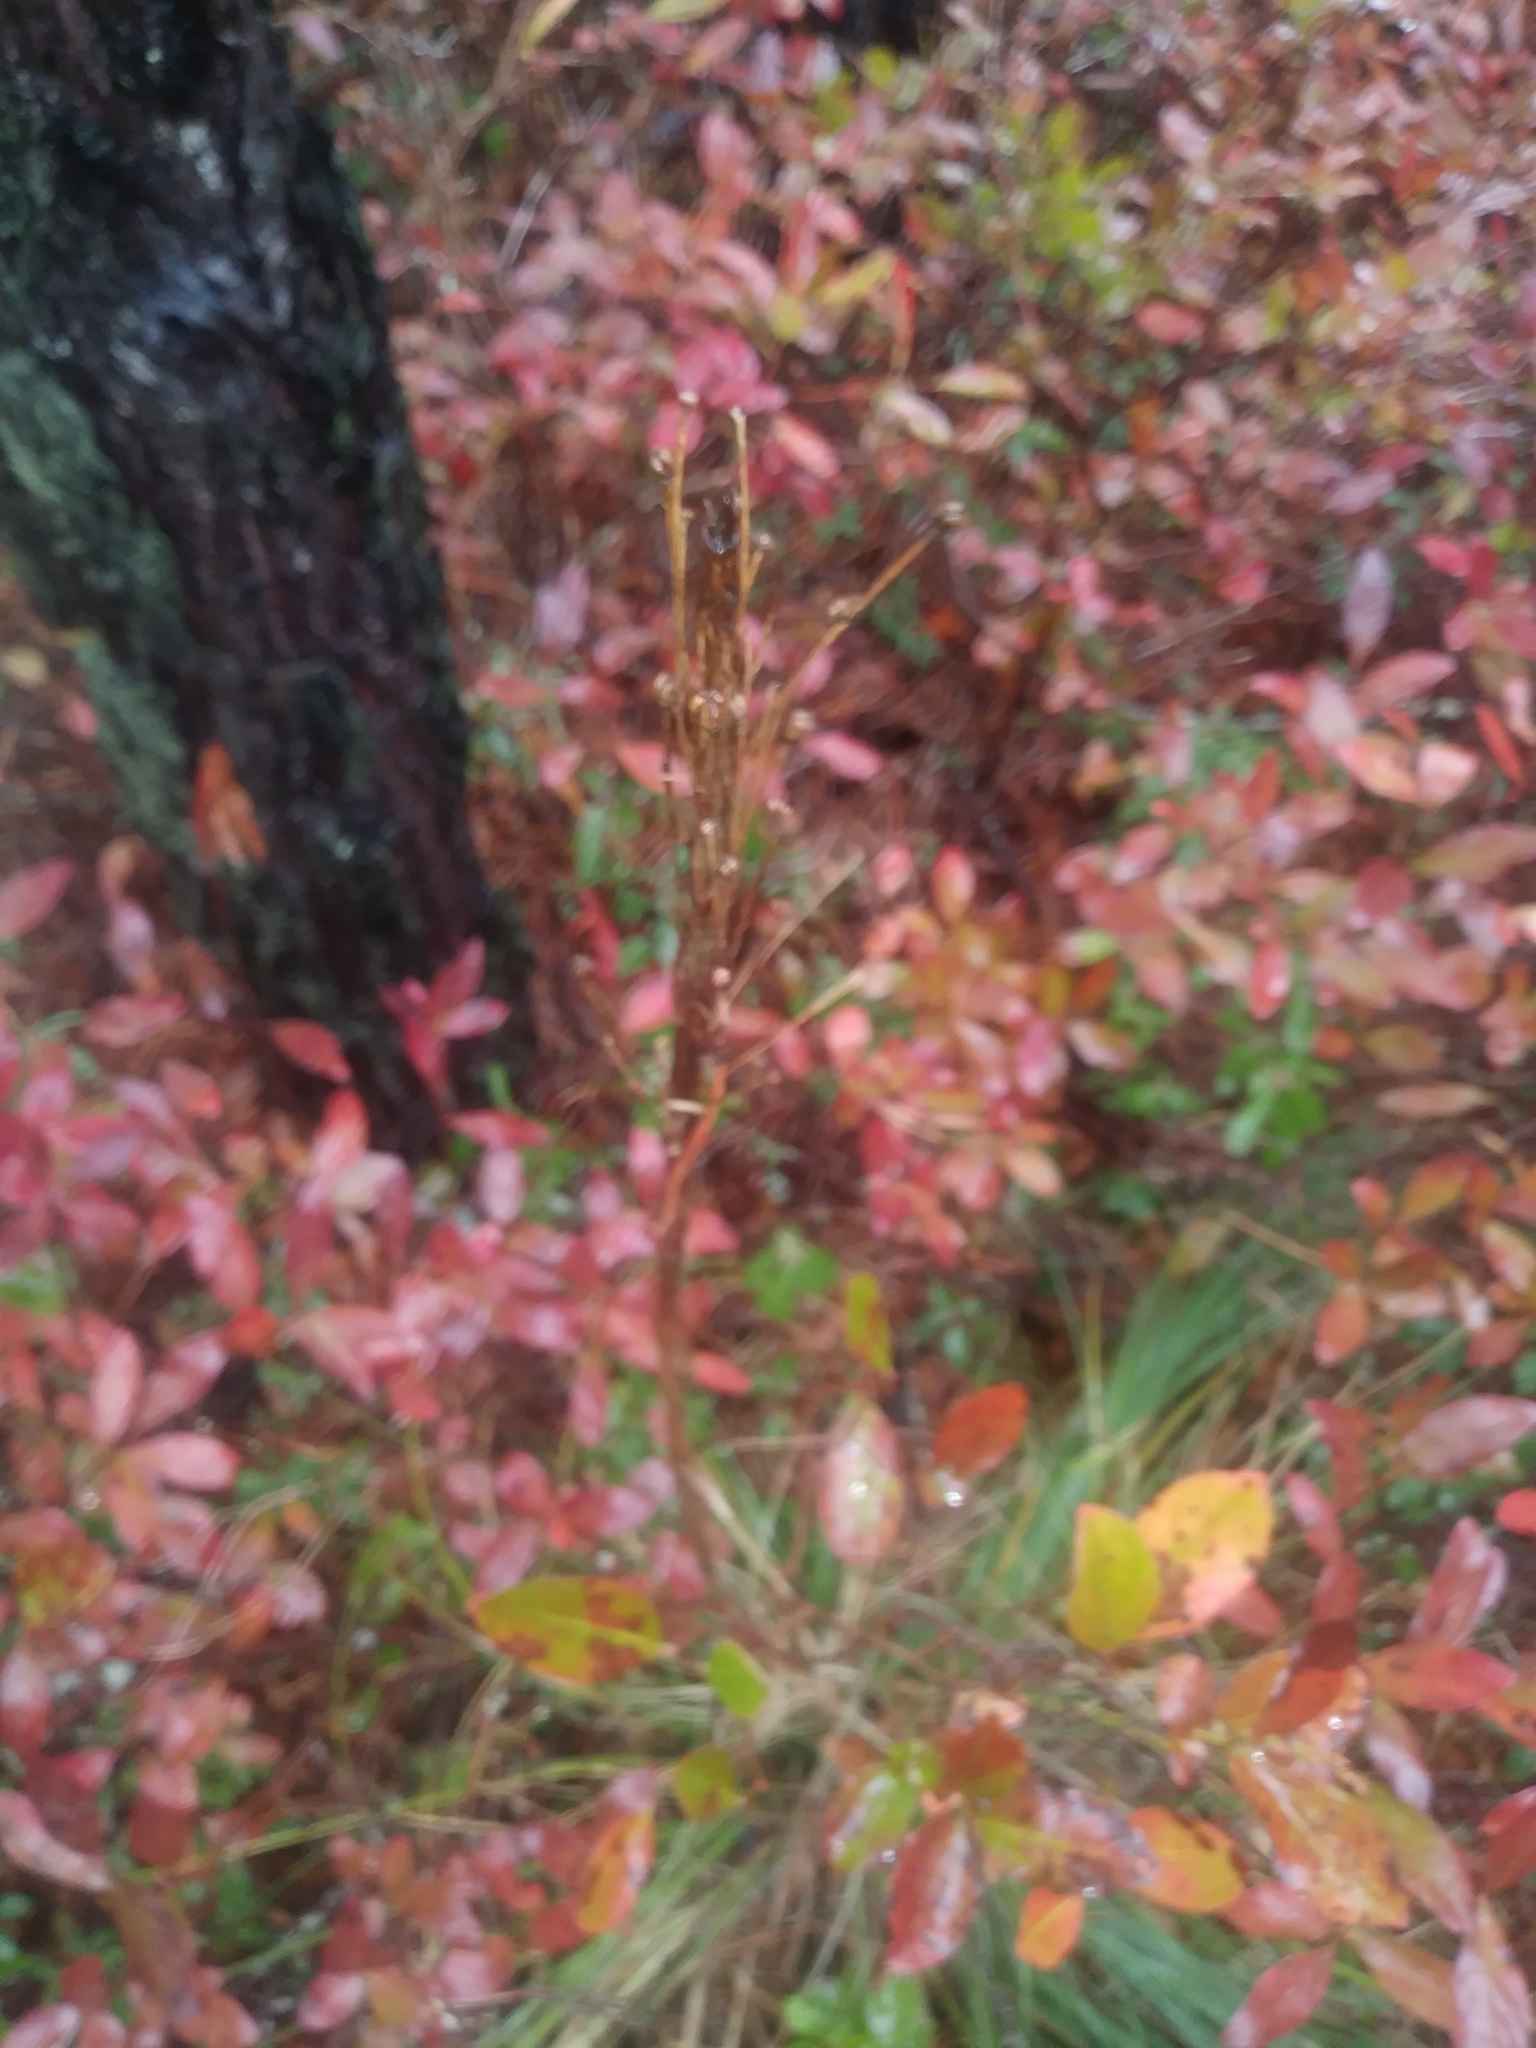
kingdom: Plantae
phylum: Tracheophyta
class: Liliopsida
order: Liliales
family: Melanthiaceae
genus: Xerophyllum
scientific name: Xerophyllum asphodeloides
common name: Mountain-asphodel
